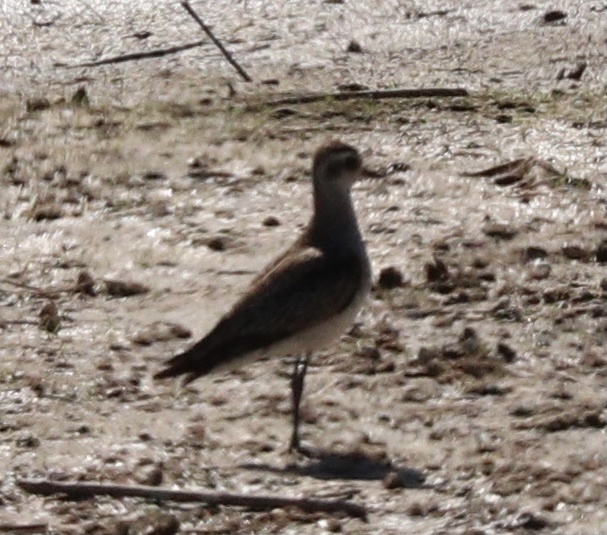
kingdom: Animalia
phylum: Chordata
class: Aves
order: Charadriiformes
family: Charadriidae
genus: Pluvialis
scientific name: Pluvialis dominica
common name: American golden plover
